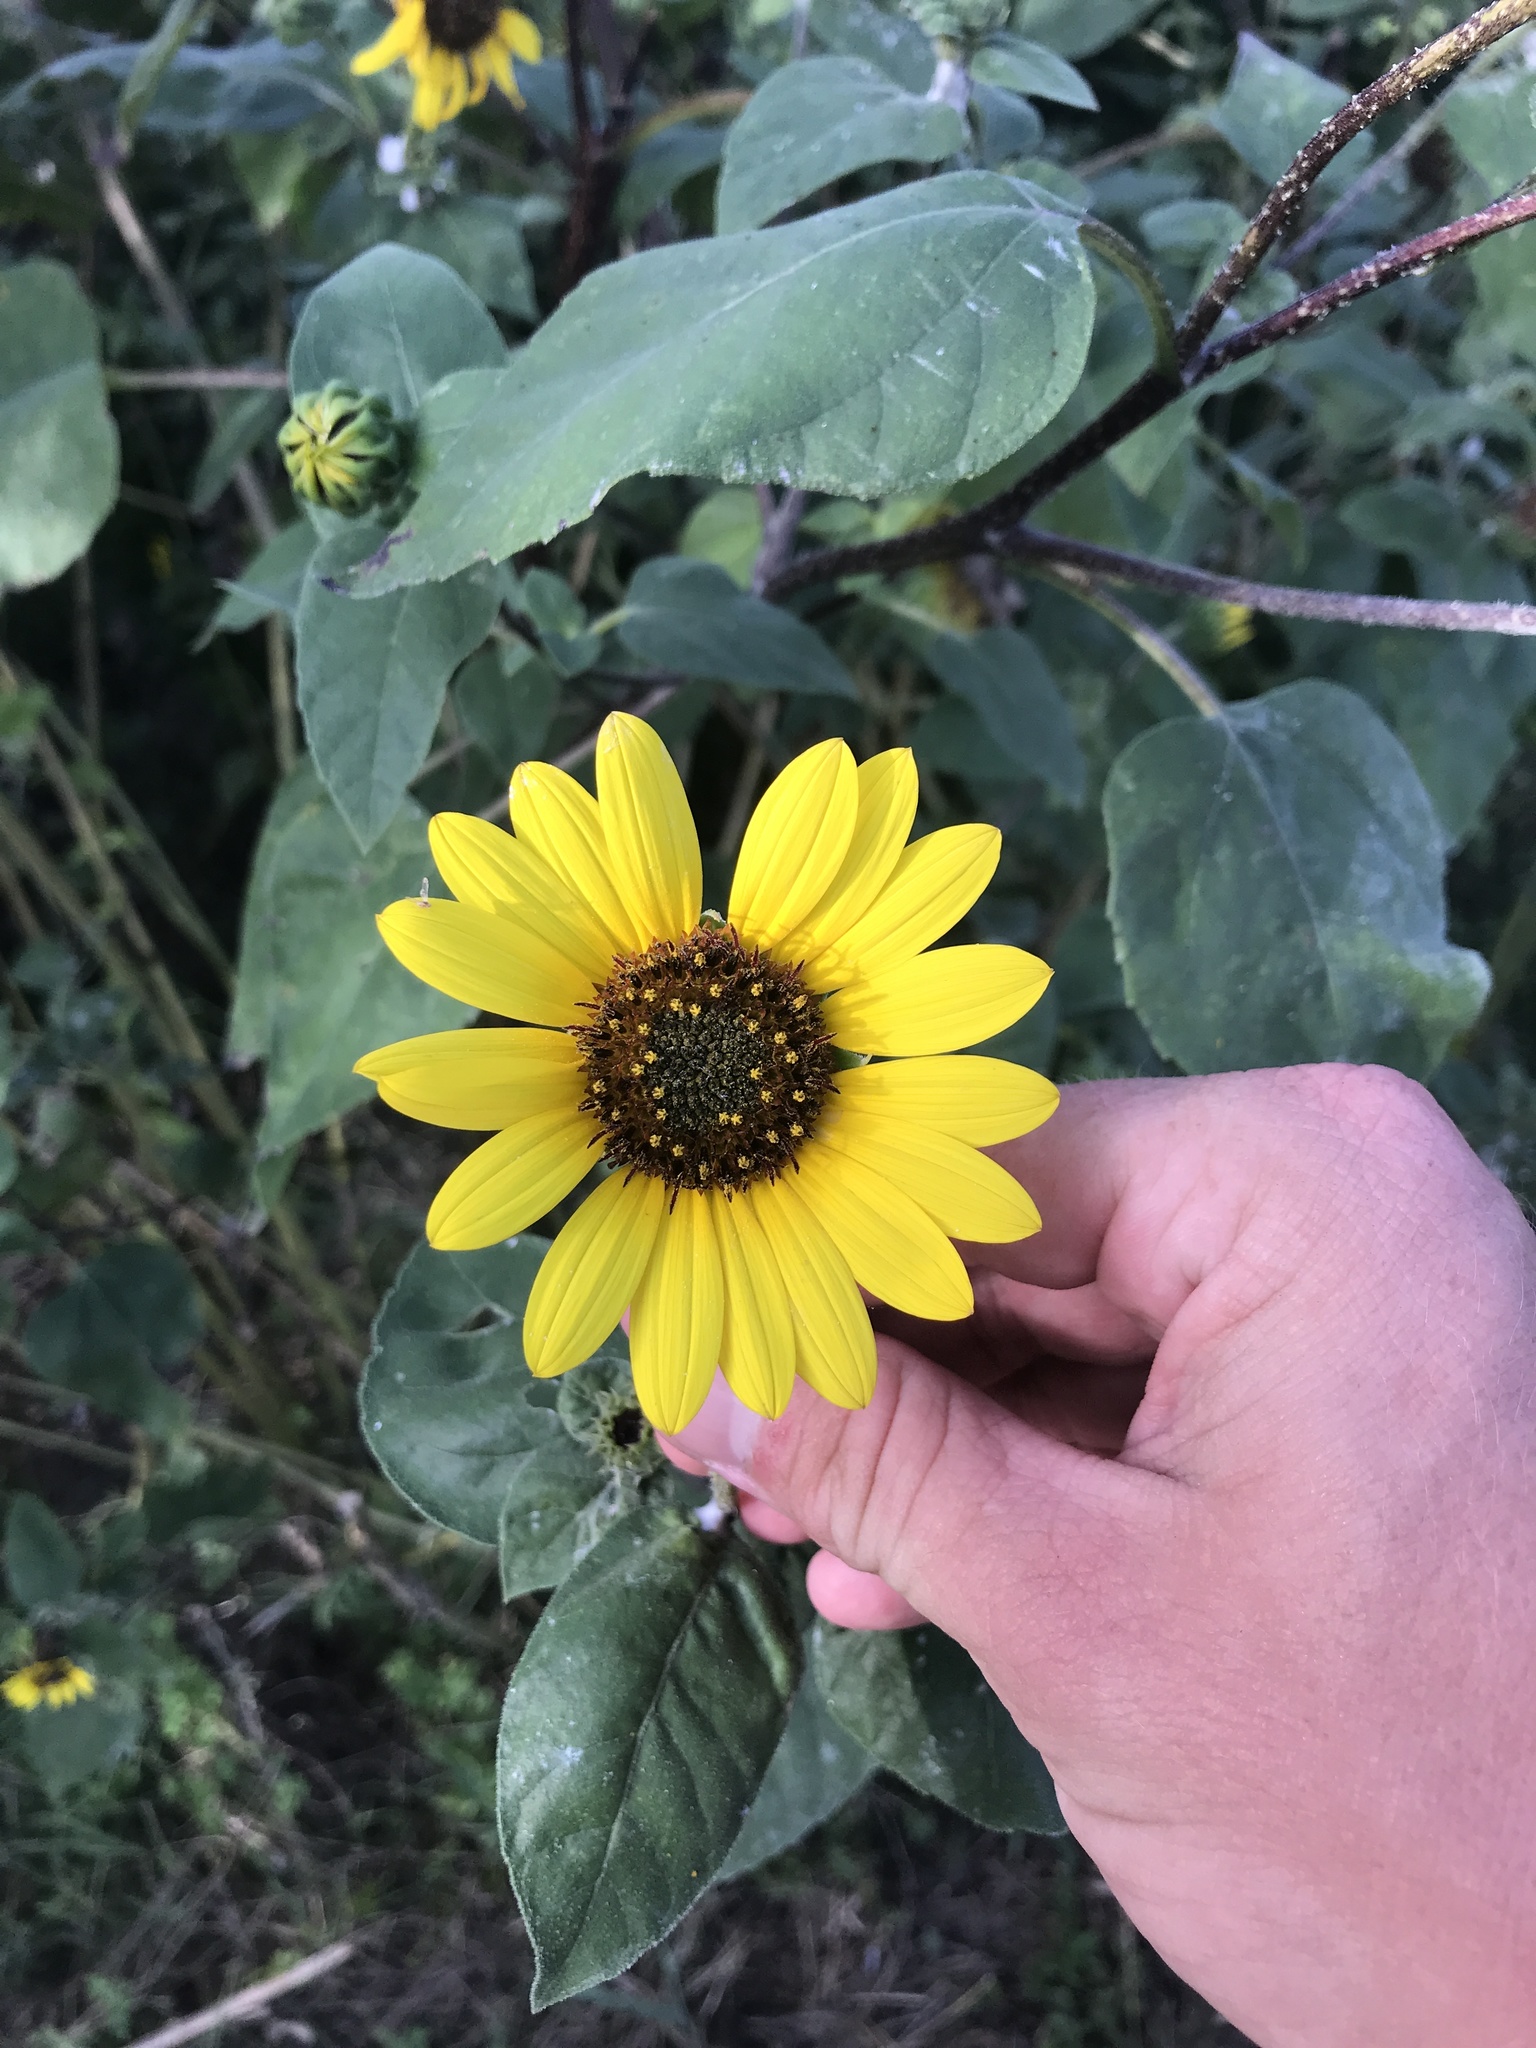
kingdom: Plantae
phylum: Tracheophyta
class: Magnoliopsida
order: Asterales
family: Asteraceae
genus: Helianthus
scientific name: Helianthus annuus
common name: Sunflower
